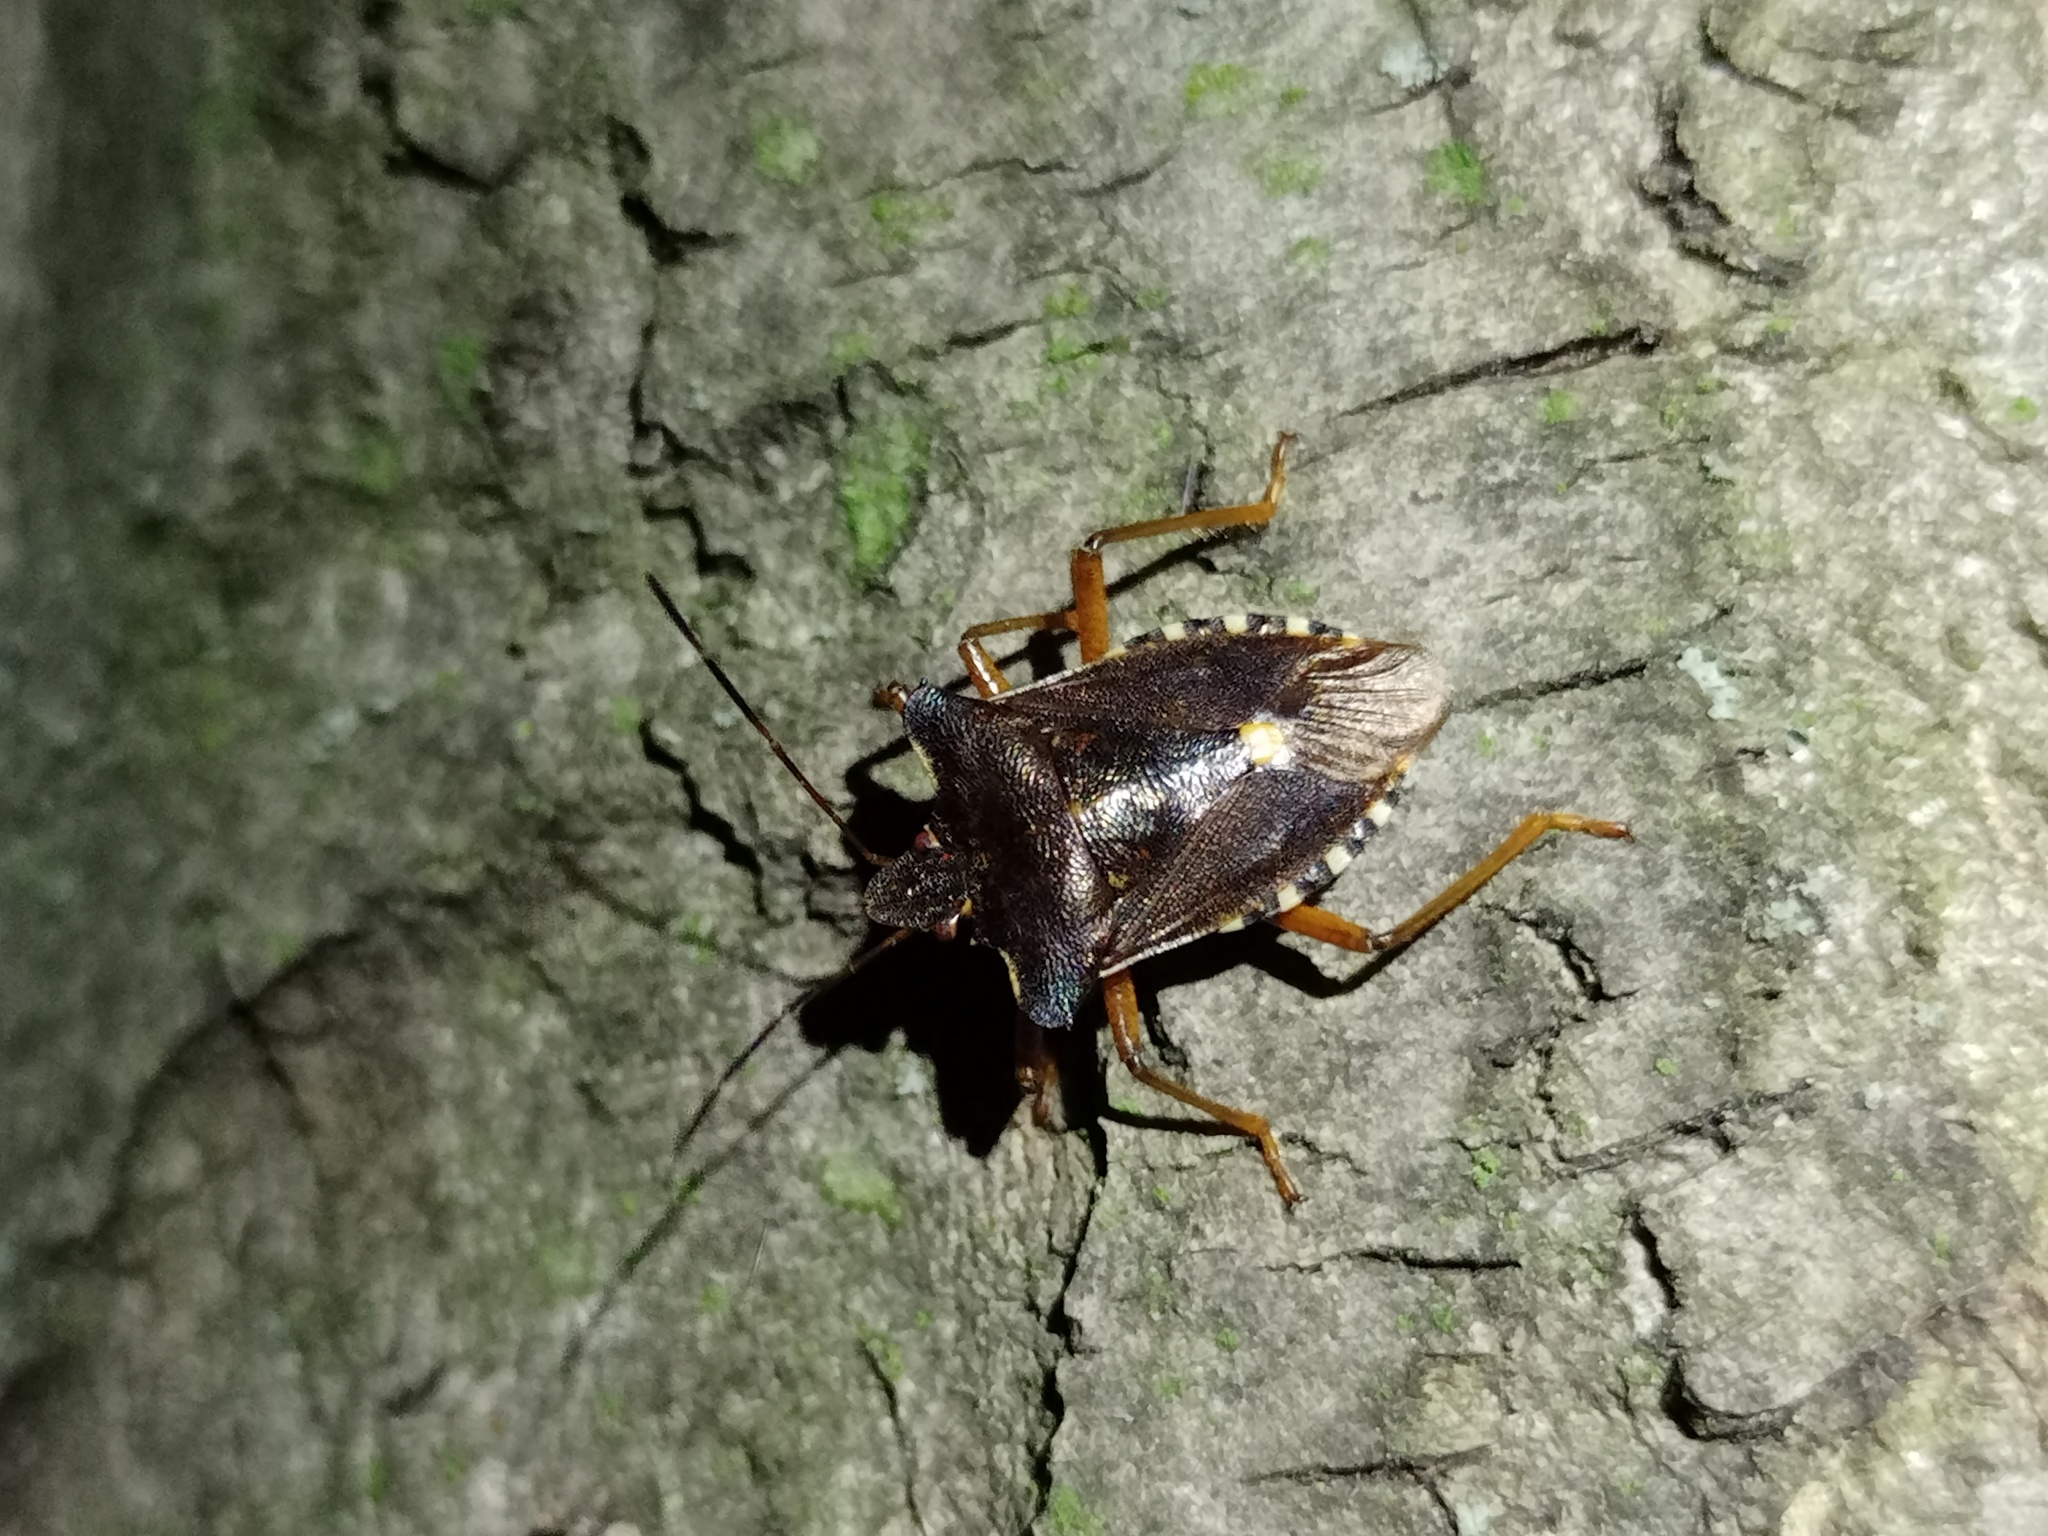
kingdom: Animalia
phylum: Arthropoda
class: Insecta
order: Hemiptera
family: Pentatomidae
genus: Pentatoma
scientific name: Pentatoma rufipes
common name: Forest bug
